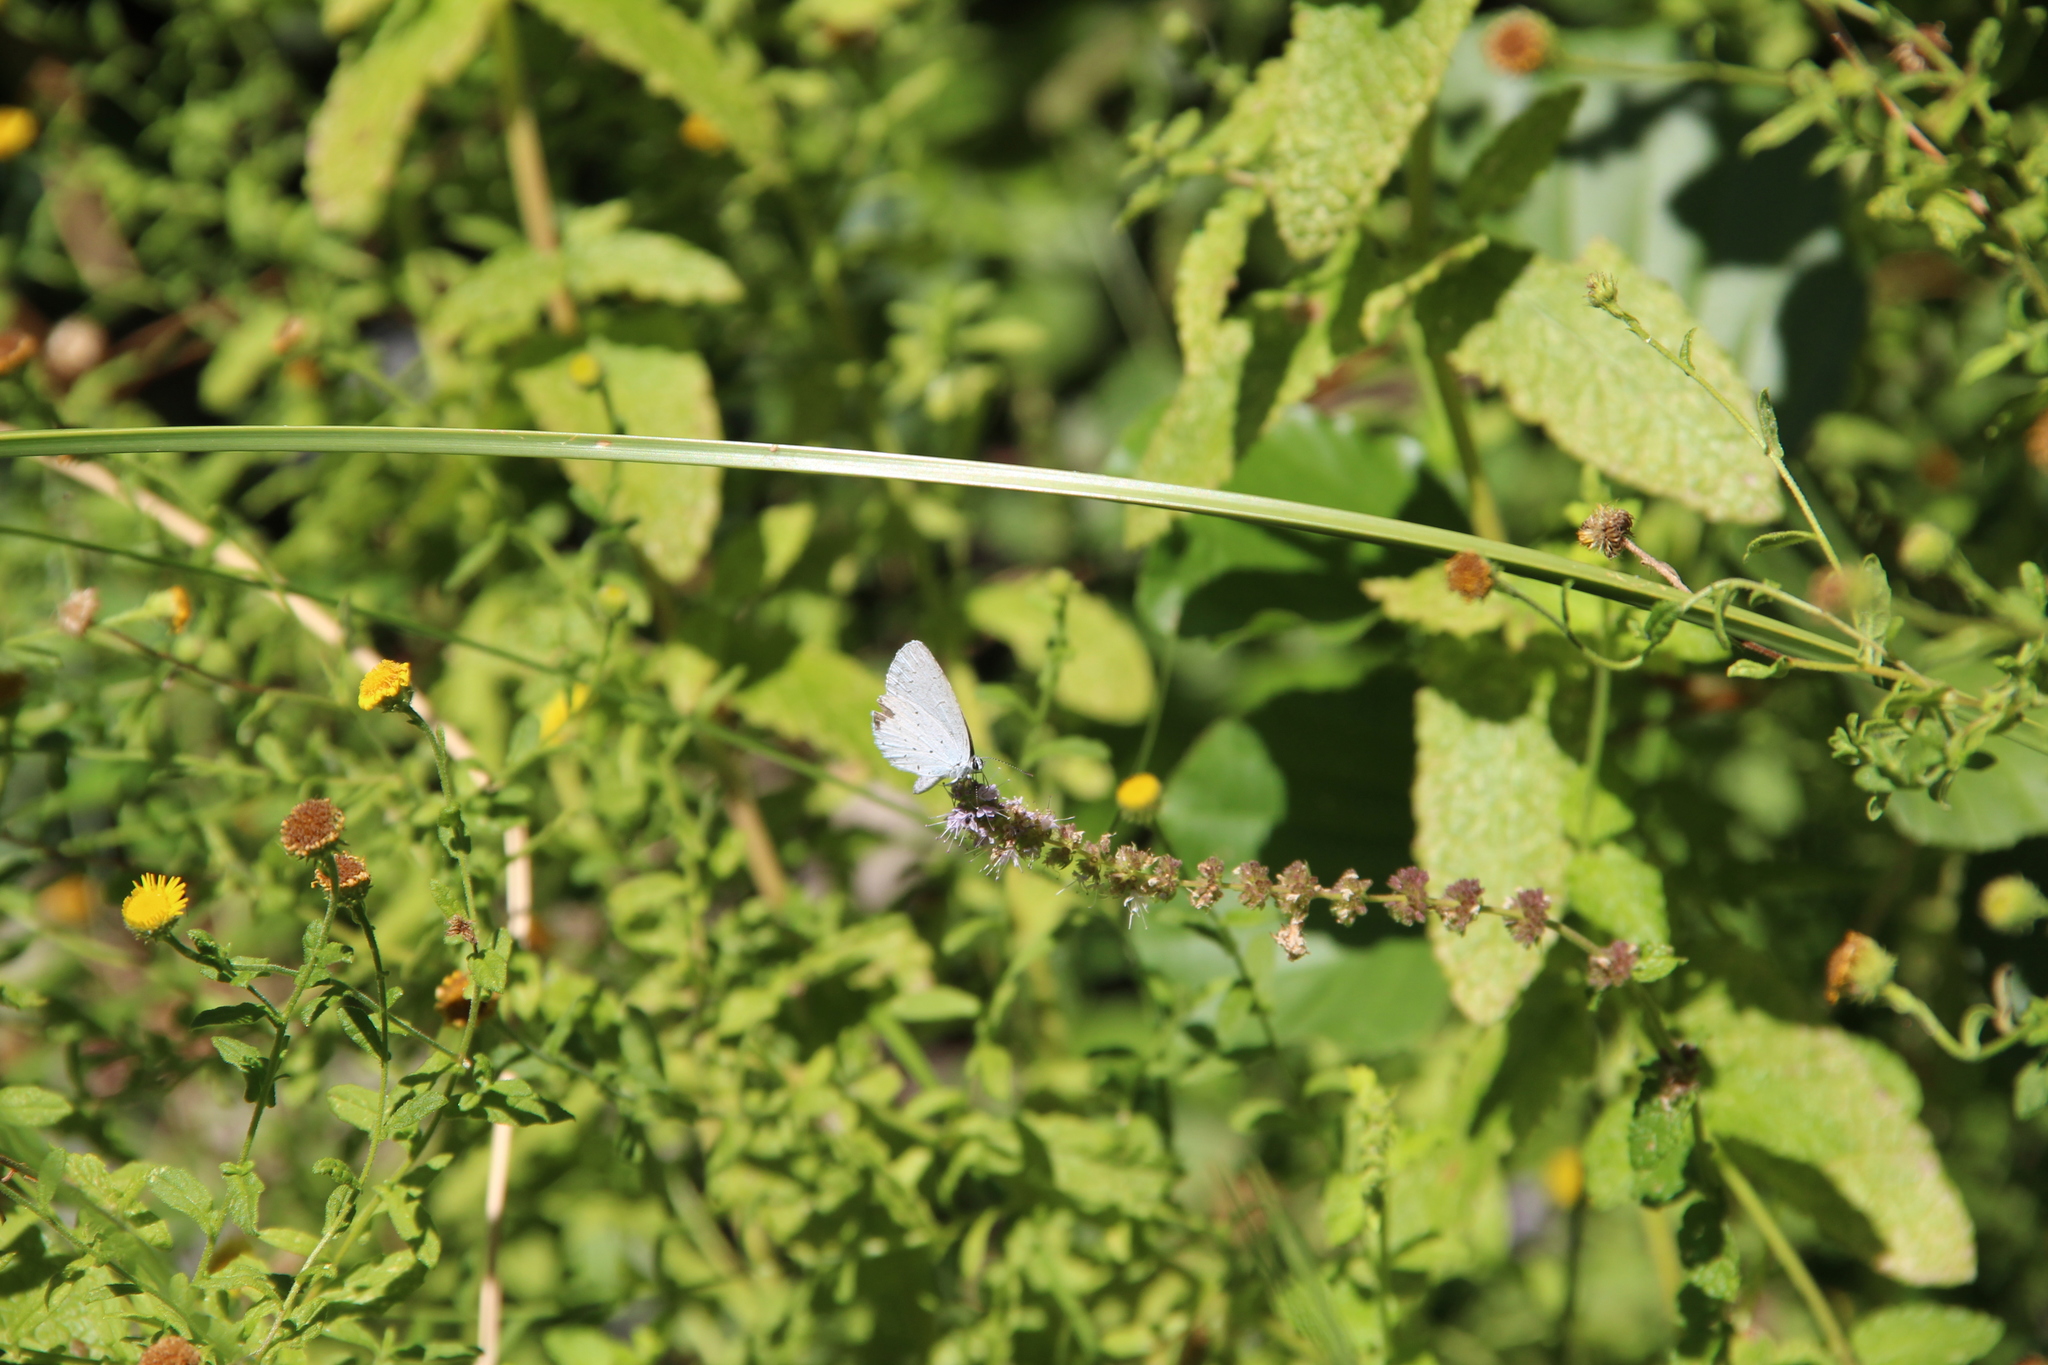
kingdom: Animalia
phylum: Arthropoda
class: Insecta
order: Lepidoptera
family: Lycaenidae
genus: Celastrina
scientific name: Celastrina argiolus
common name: Holly blue
